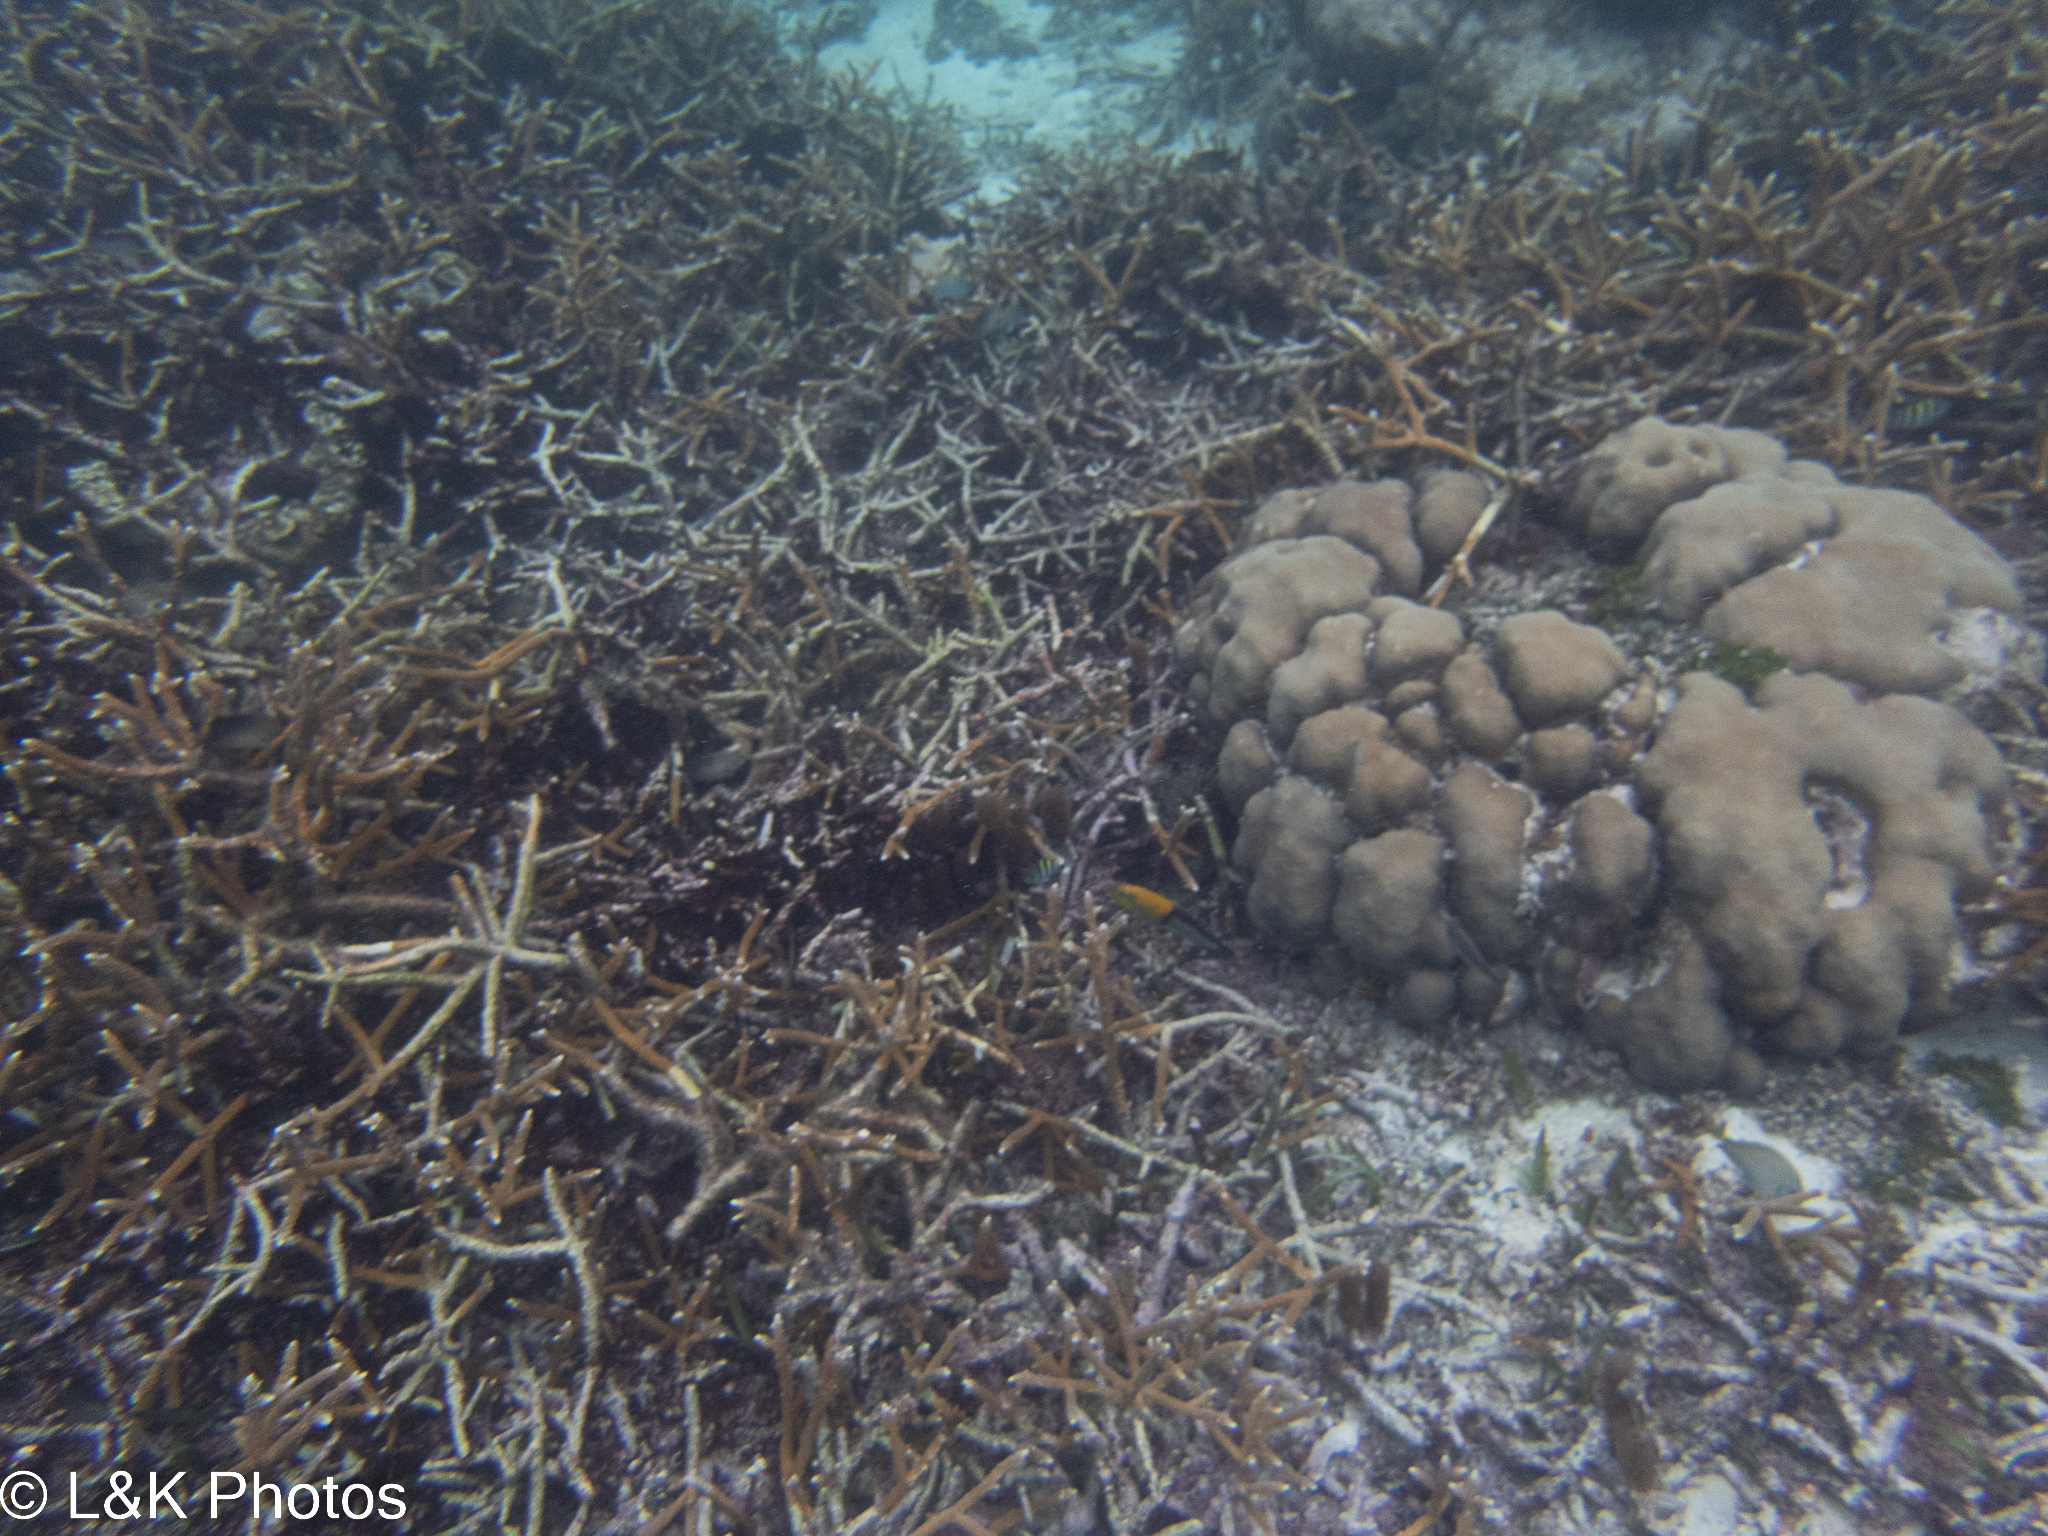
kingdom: Animalia
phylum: Cnidaria
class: Anthozoa
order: Scleractinia
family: Acroporidae
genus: Acropora
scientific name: Acropora cervicornis
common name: Staghorn coral
